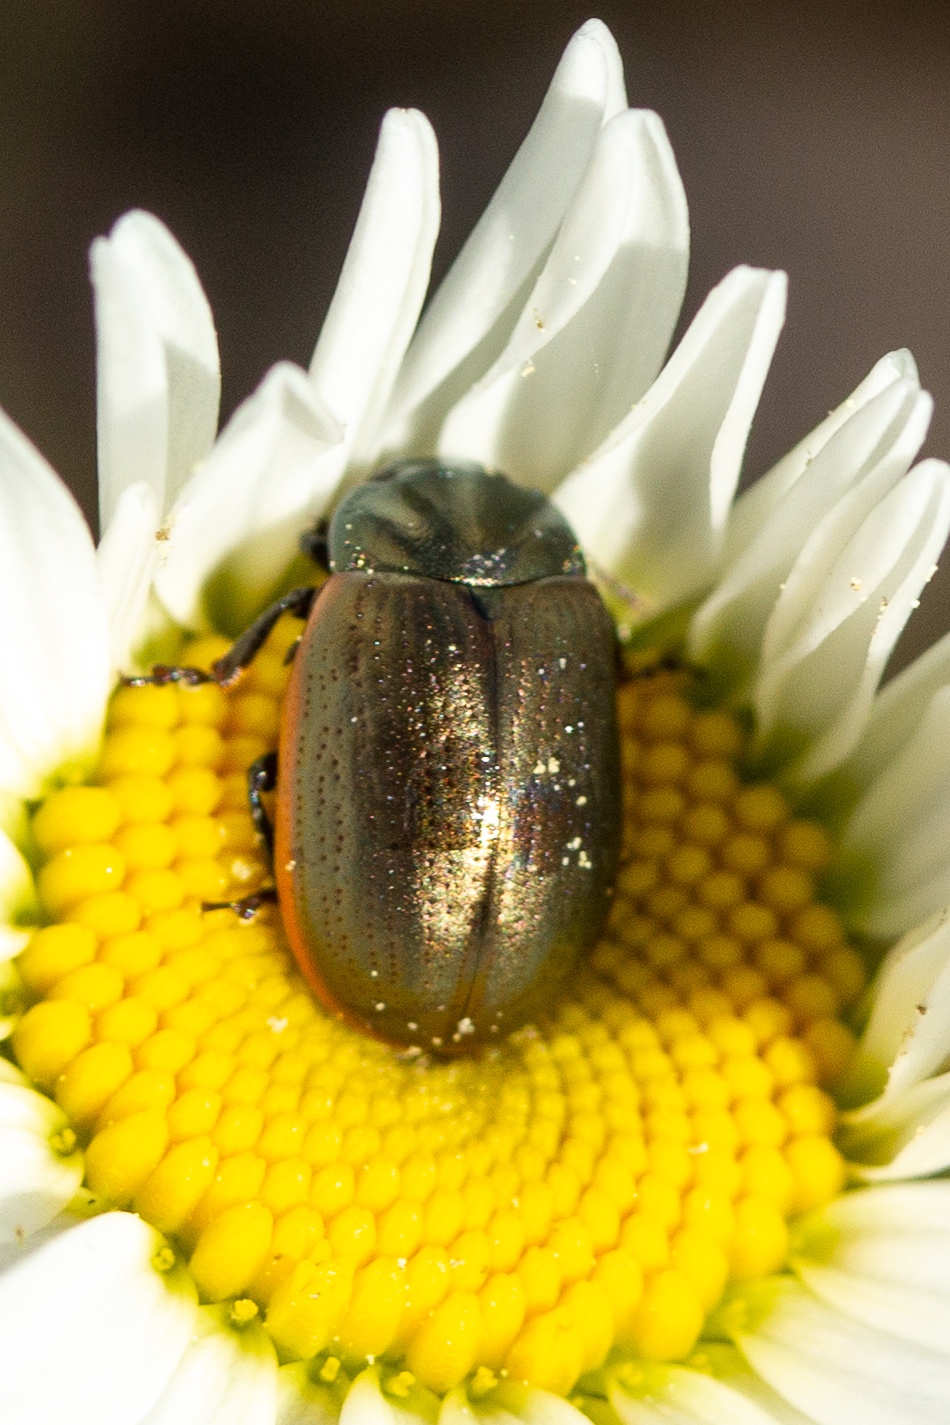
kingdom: Animalia
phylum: Arthropoda
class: Insecta
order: Coleoptera
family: Chrysomelidae
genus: Chrysolina
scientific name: Chrysolina marginata
